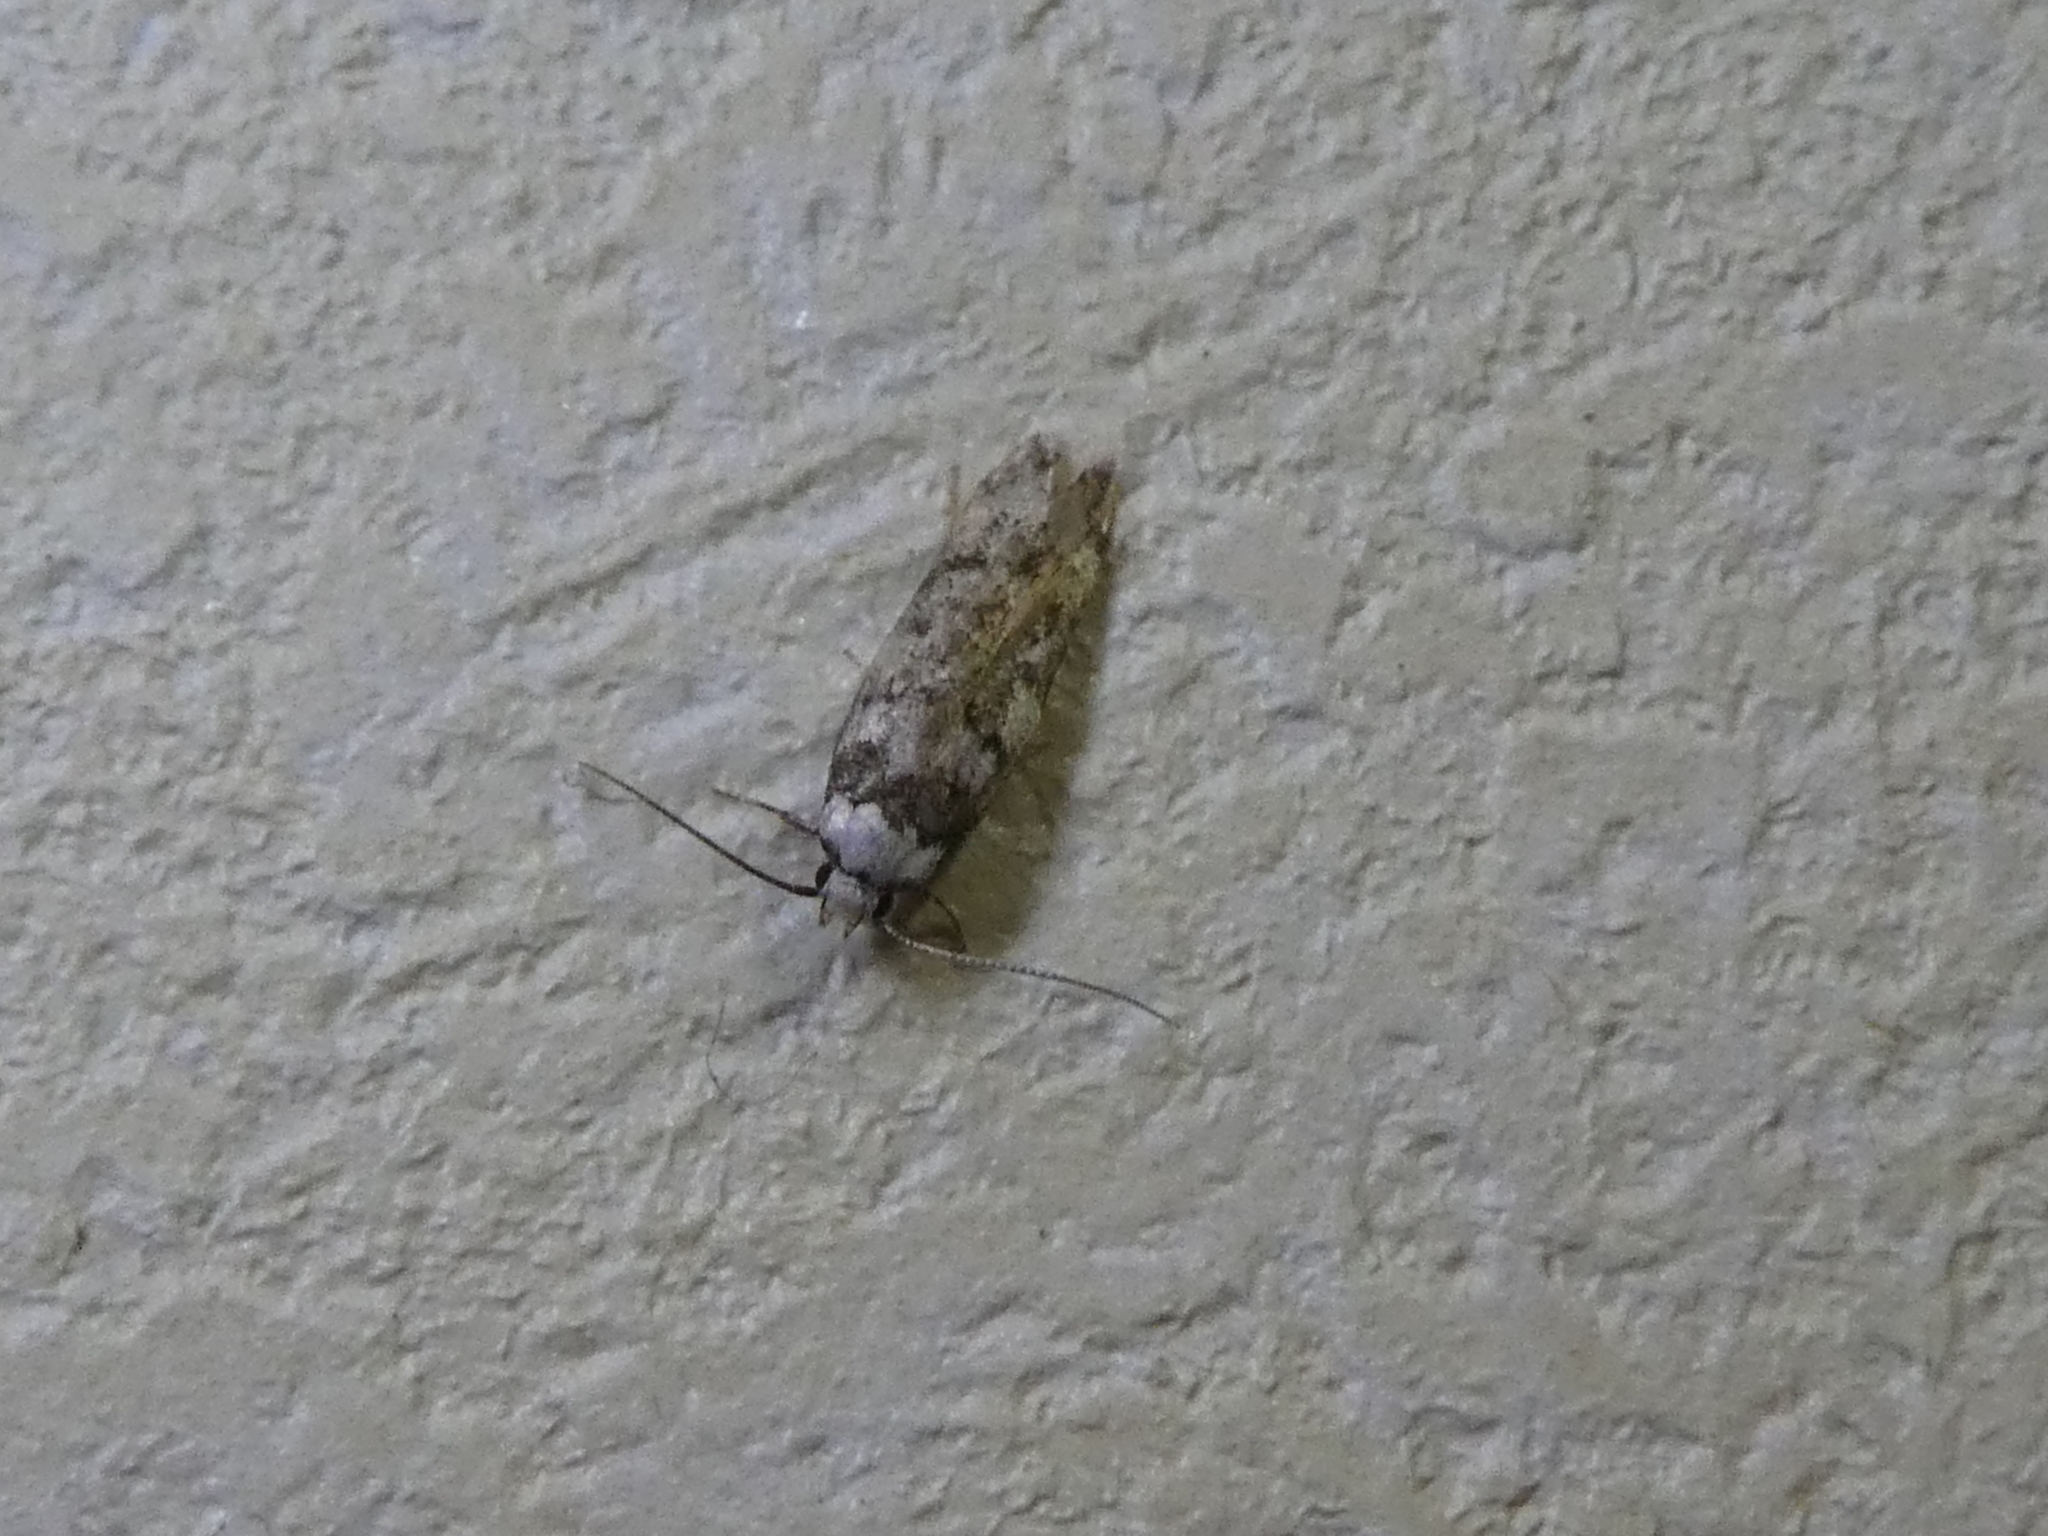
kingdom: Animalia
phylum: Arthropoda
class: Insecta
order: Lepidoptera
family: Oecophoridae
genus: Endrosis
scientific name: Endrosis sarcitrella
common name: White-shouldered house moth
